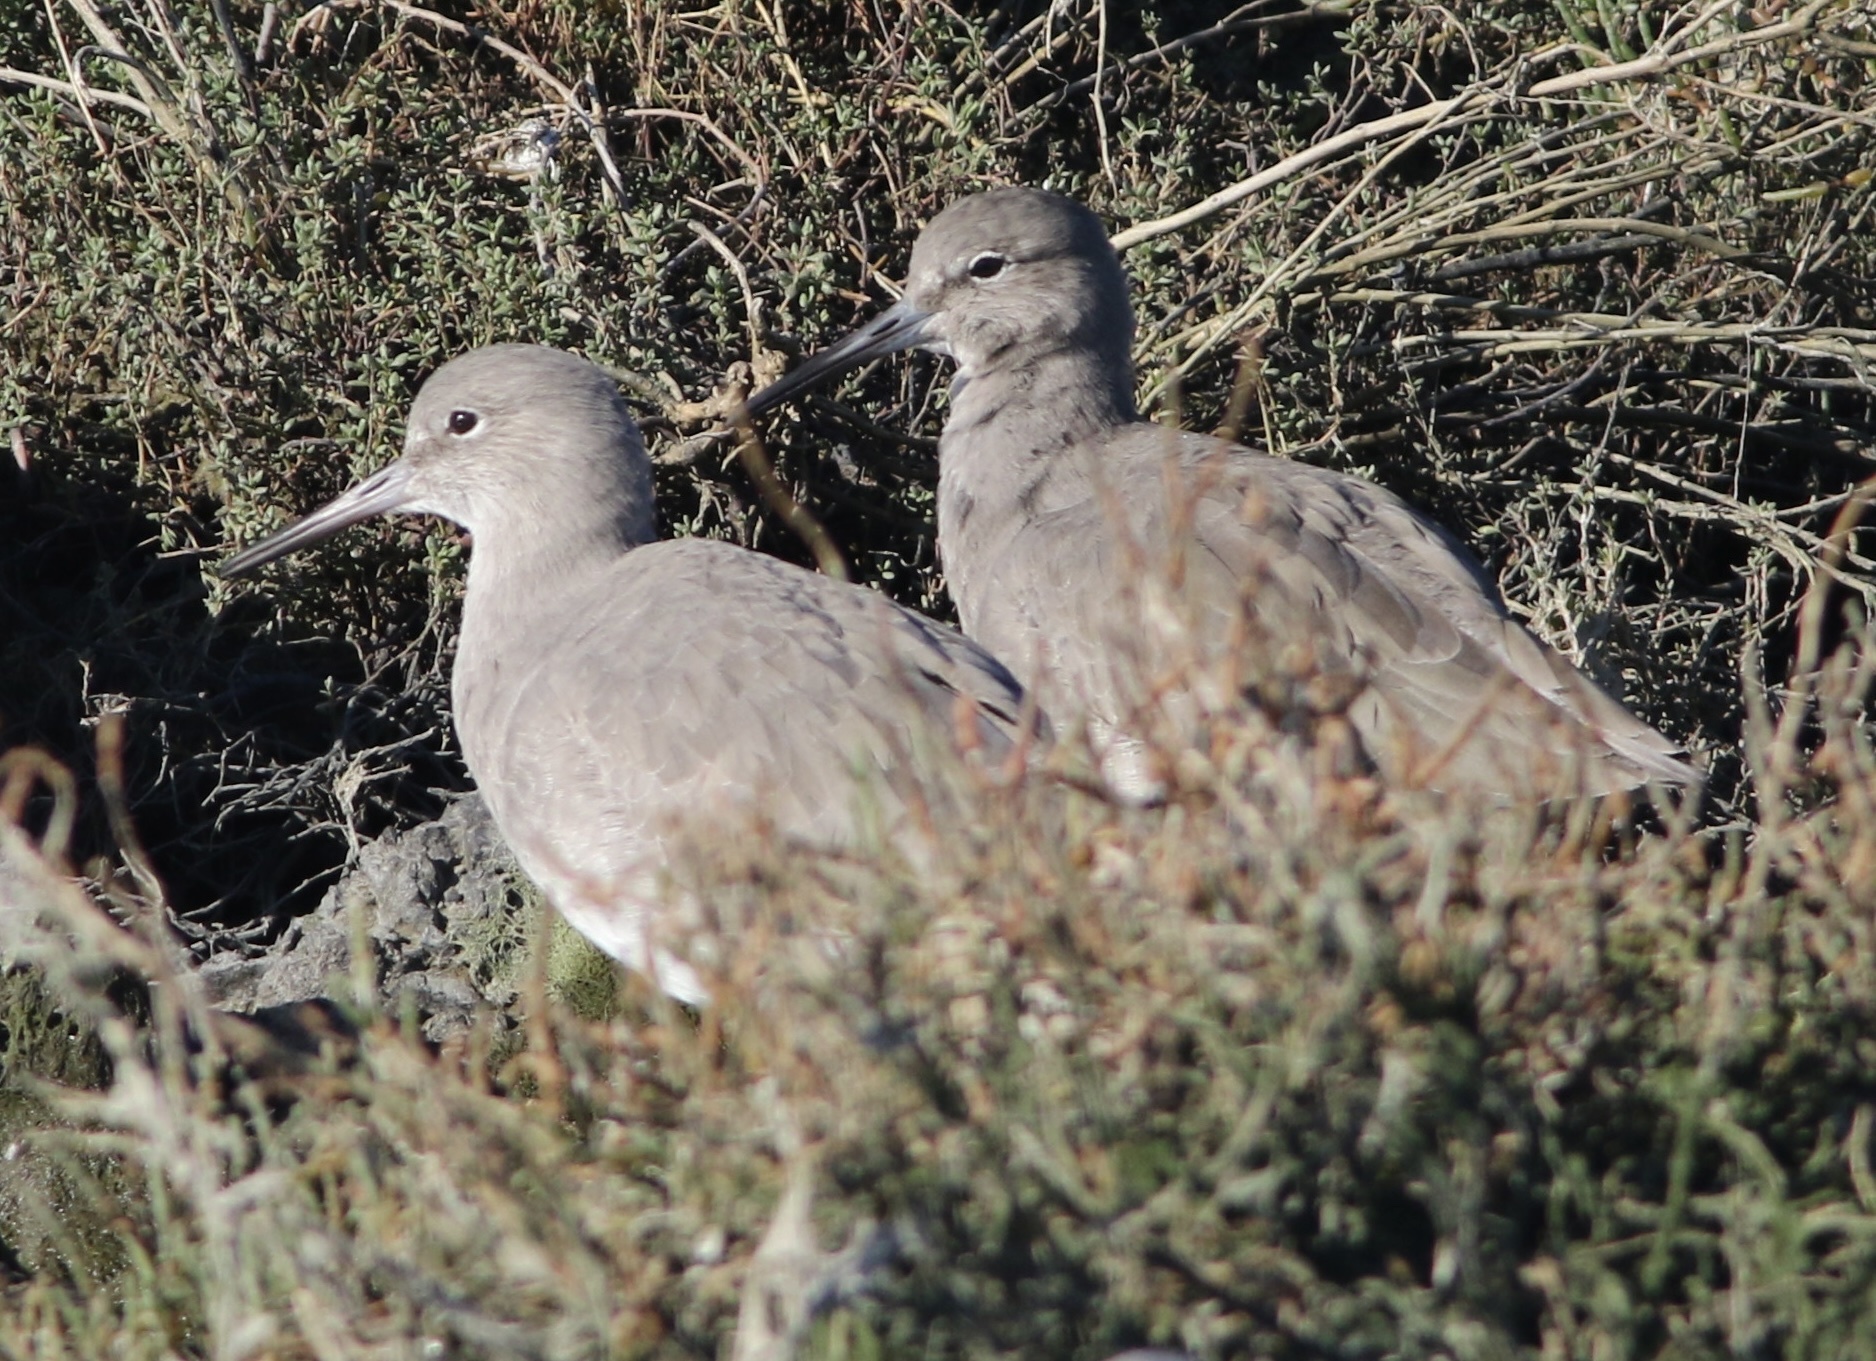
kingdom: Animalia
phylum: Chordata
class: Aves
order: Charadriiformes
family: Scolopacidae
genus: Tringa
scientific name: Tringa semipalmata
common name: Willet
